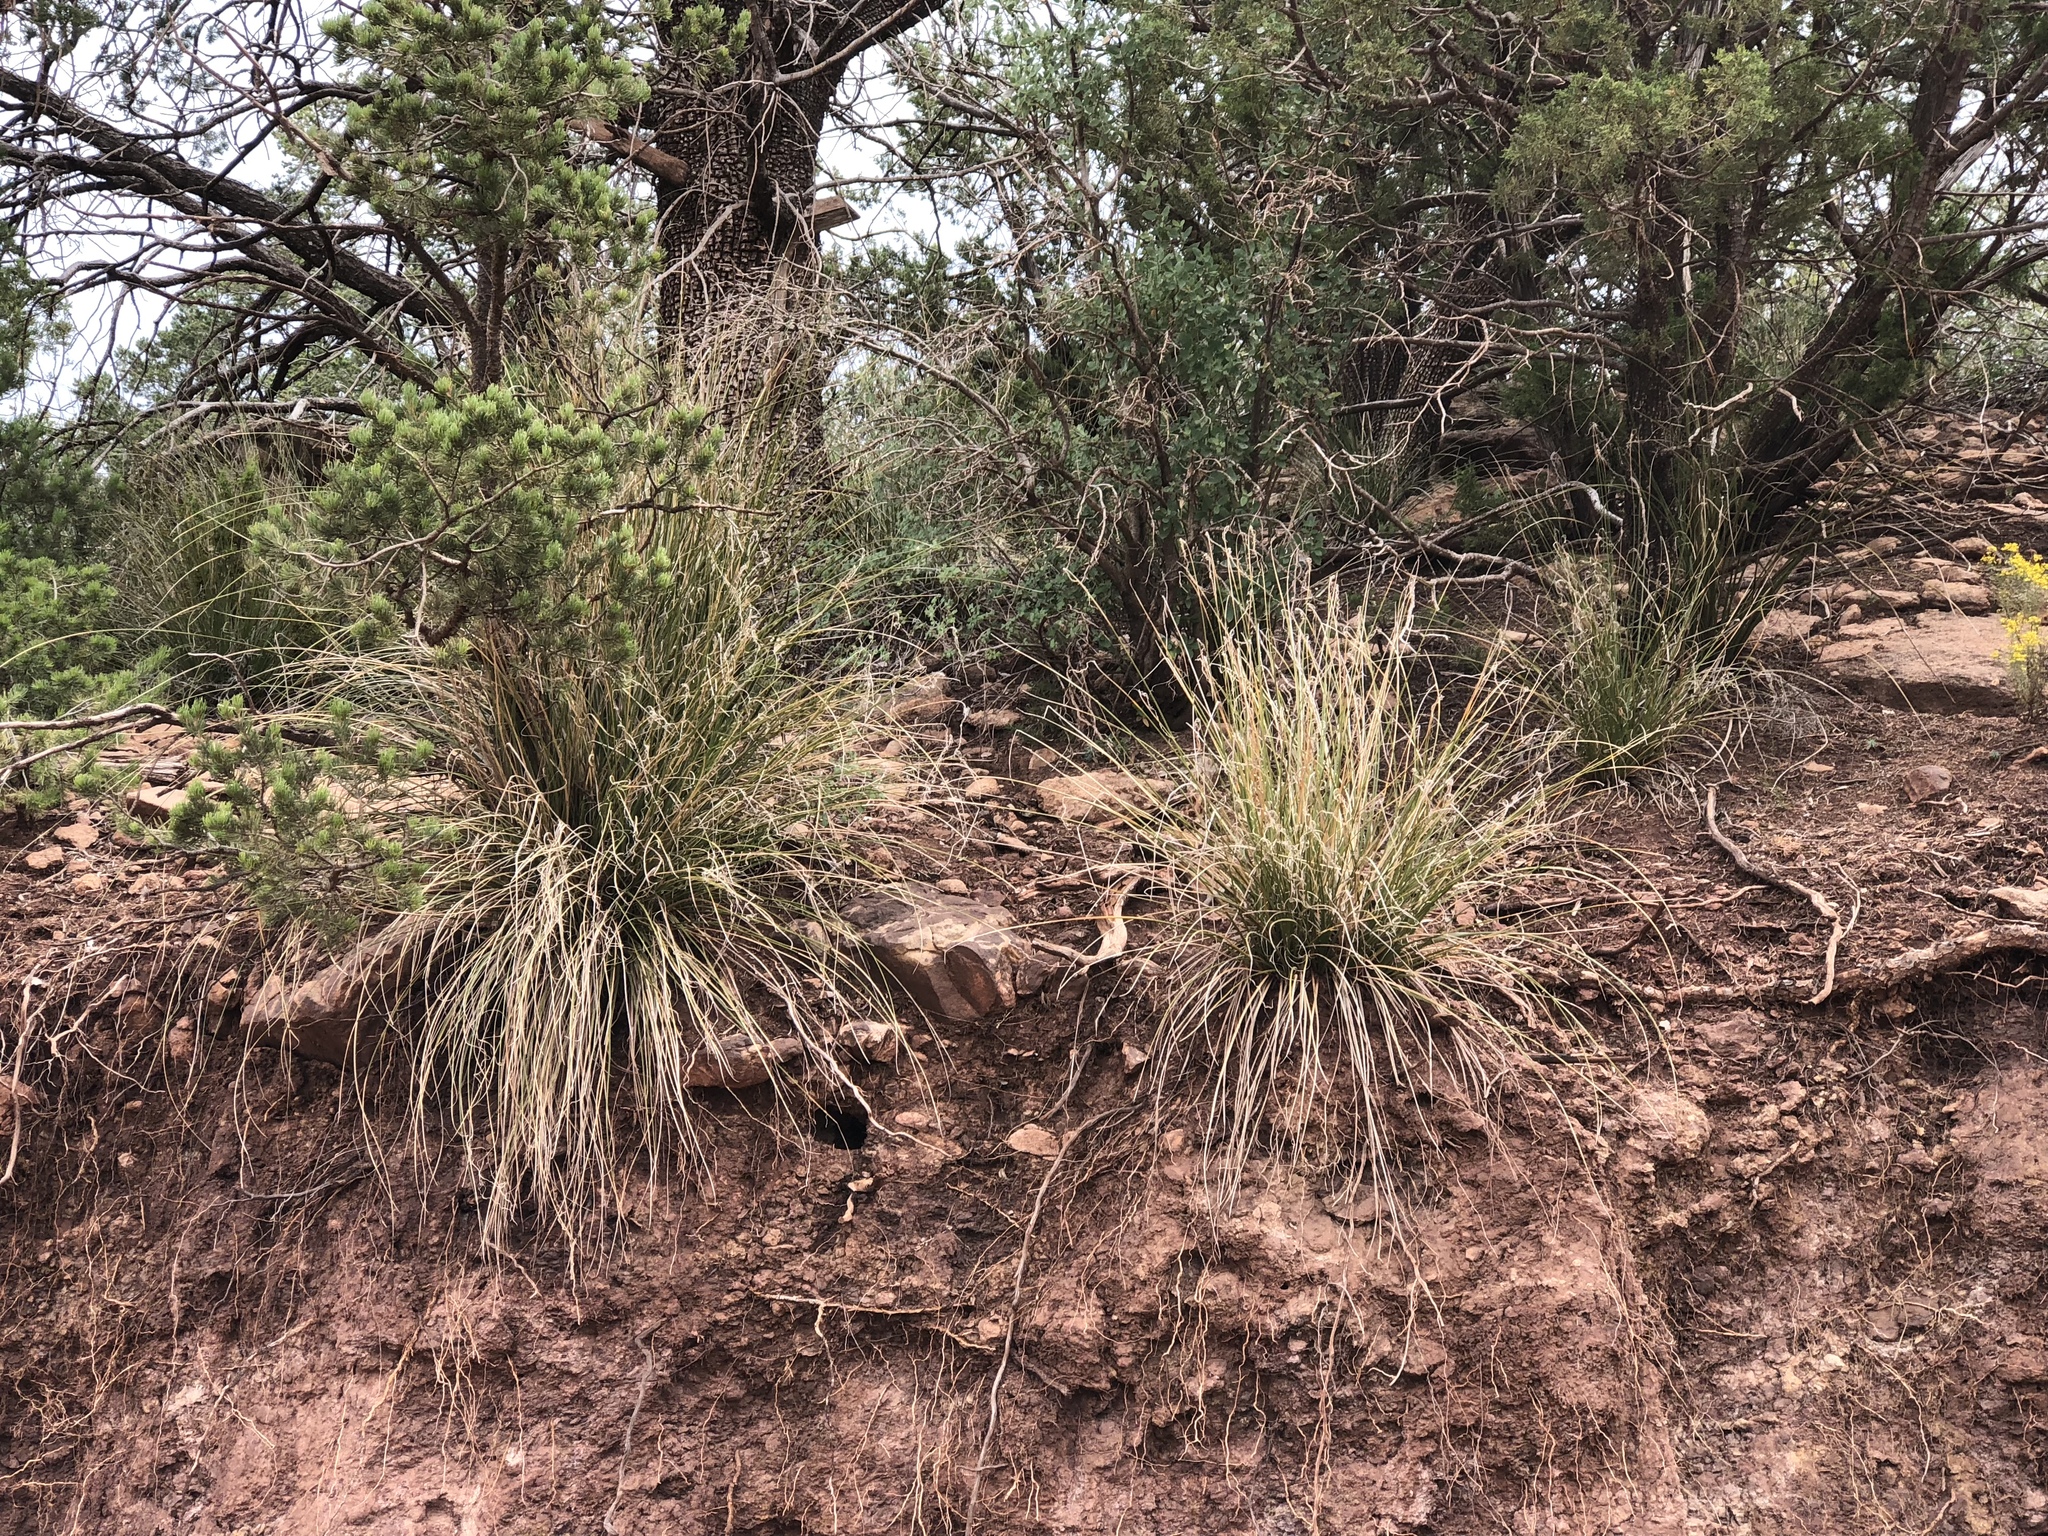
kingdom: Plantae
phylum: Tracheophyta
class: Liliopsida
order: Asparagales
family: Asparagaceae
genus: Nolina
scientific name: Nolina microcarpa
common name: Bear-grass
